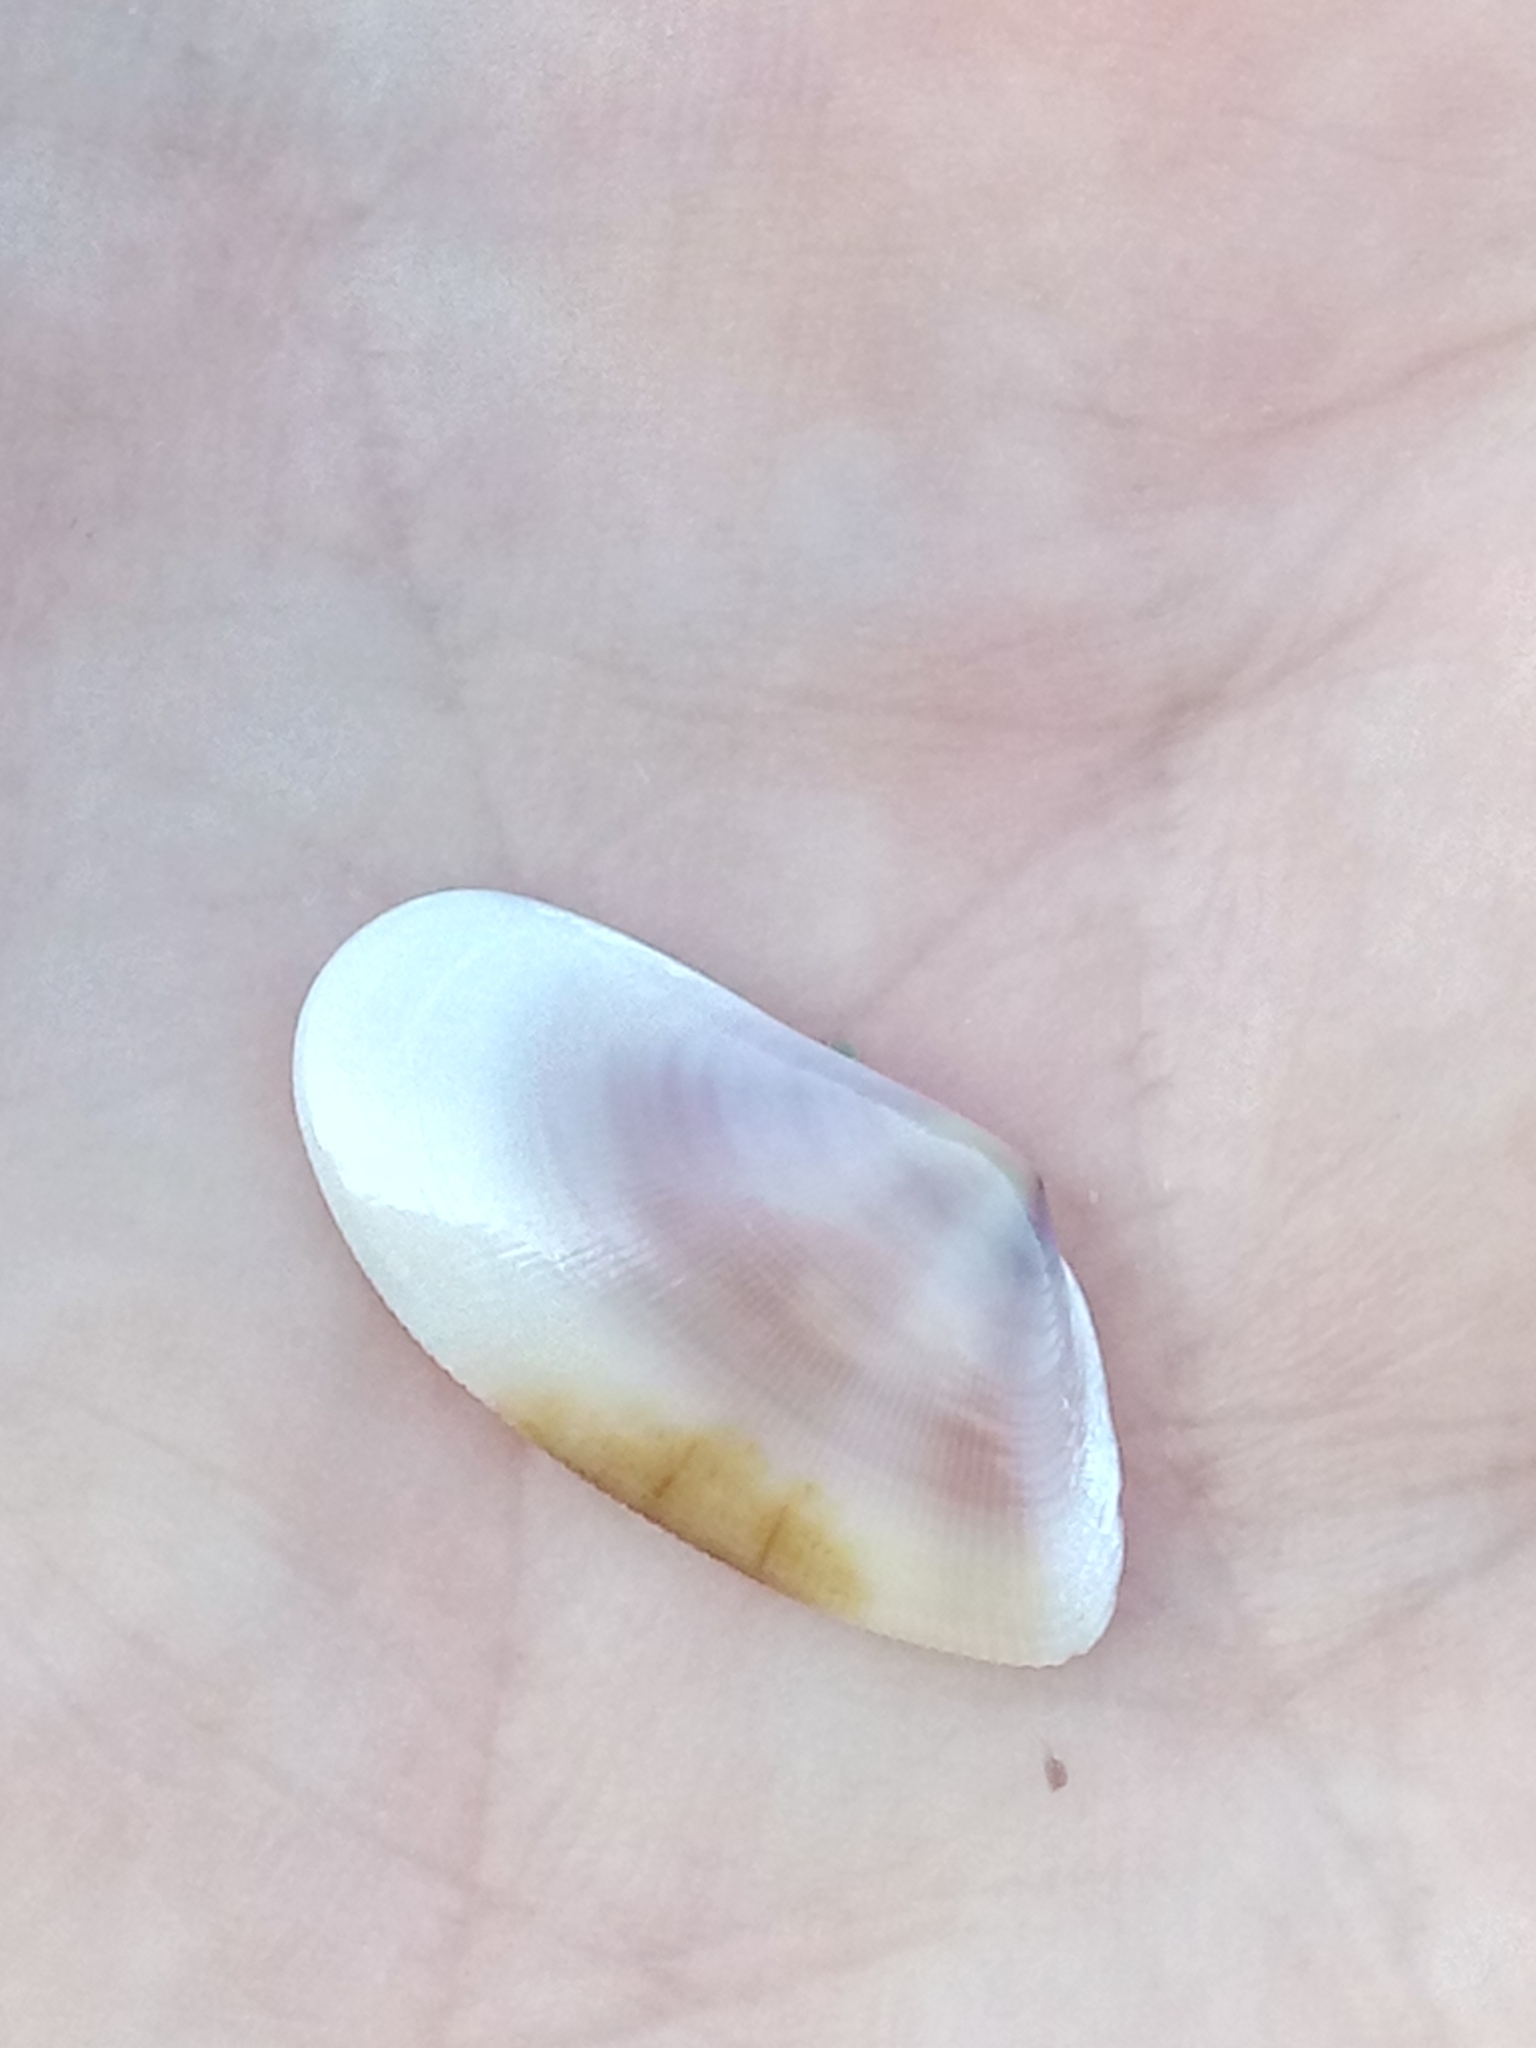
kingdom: Animalia
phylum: Mollusca
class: Bivalvia
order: Cardiida
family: Donacidae
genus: Donax
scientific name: Donax semistriatus
